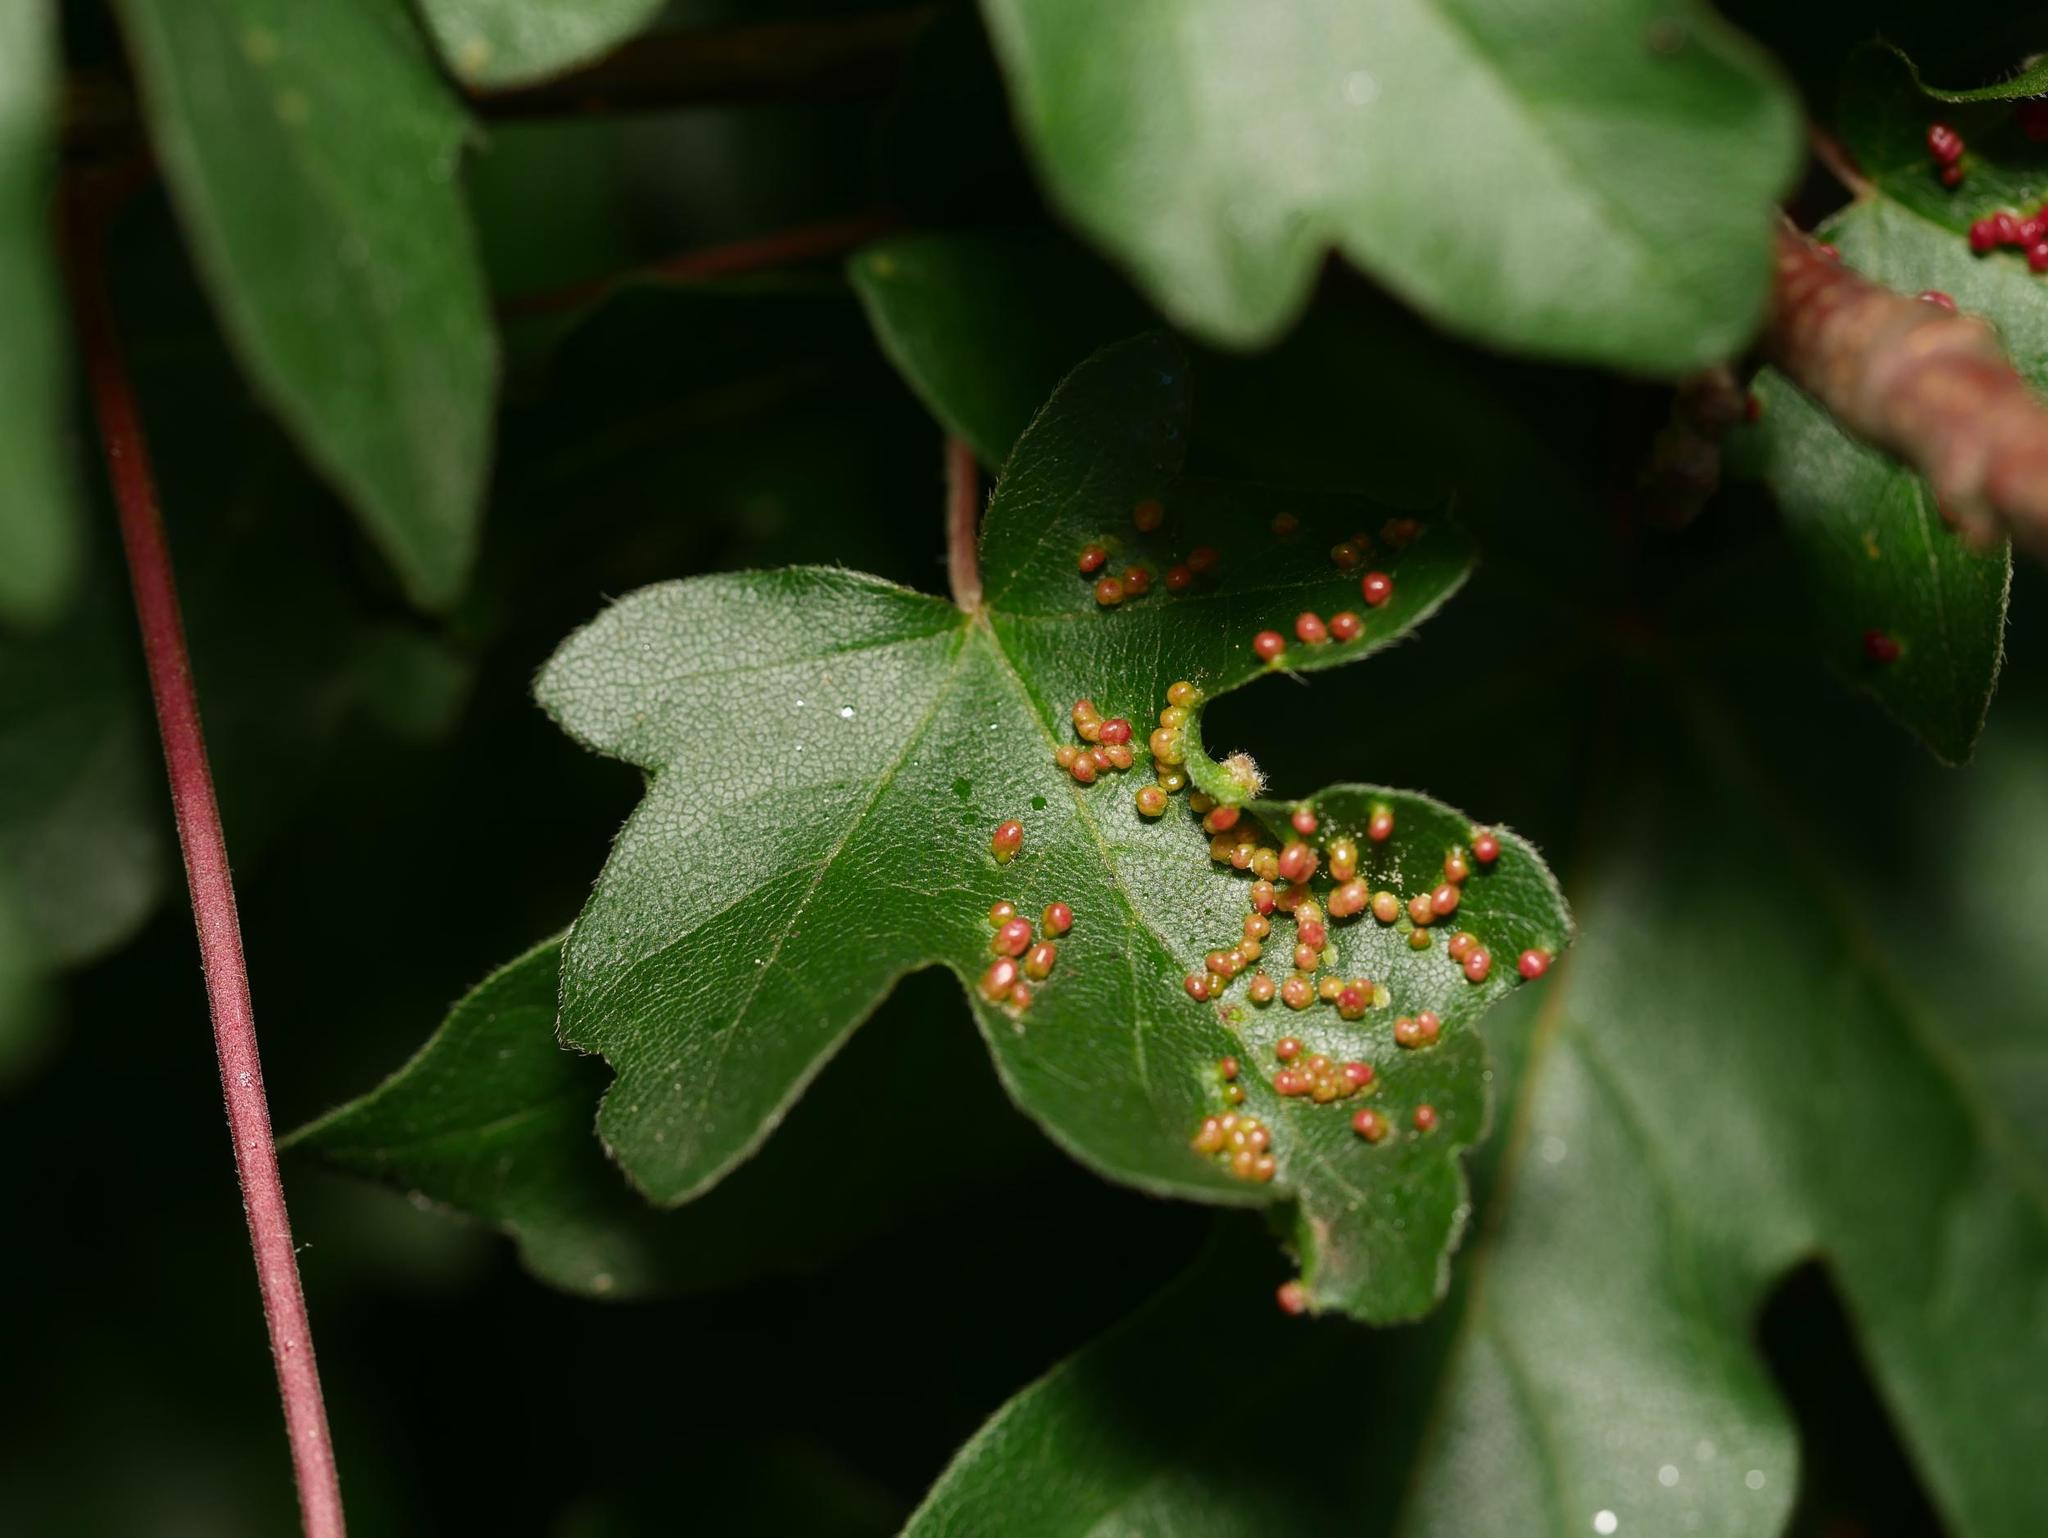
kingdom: Animalia
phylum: Arthropoda
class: Arachnida
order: Trombidiformes
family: Eriophyidae
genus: Aceria
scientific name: Aceria myriadeum
